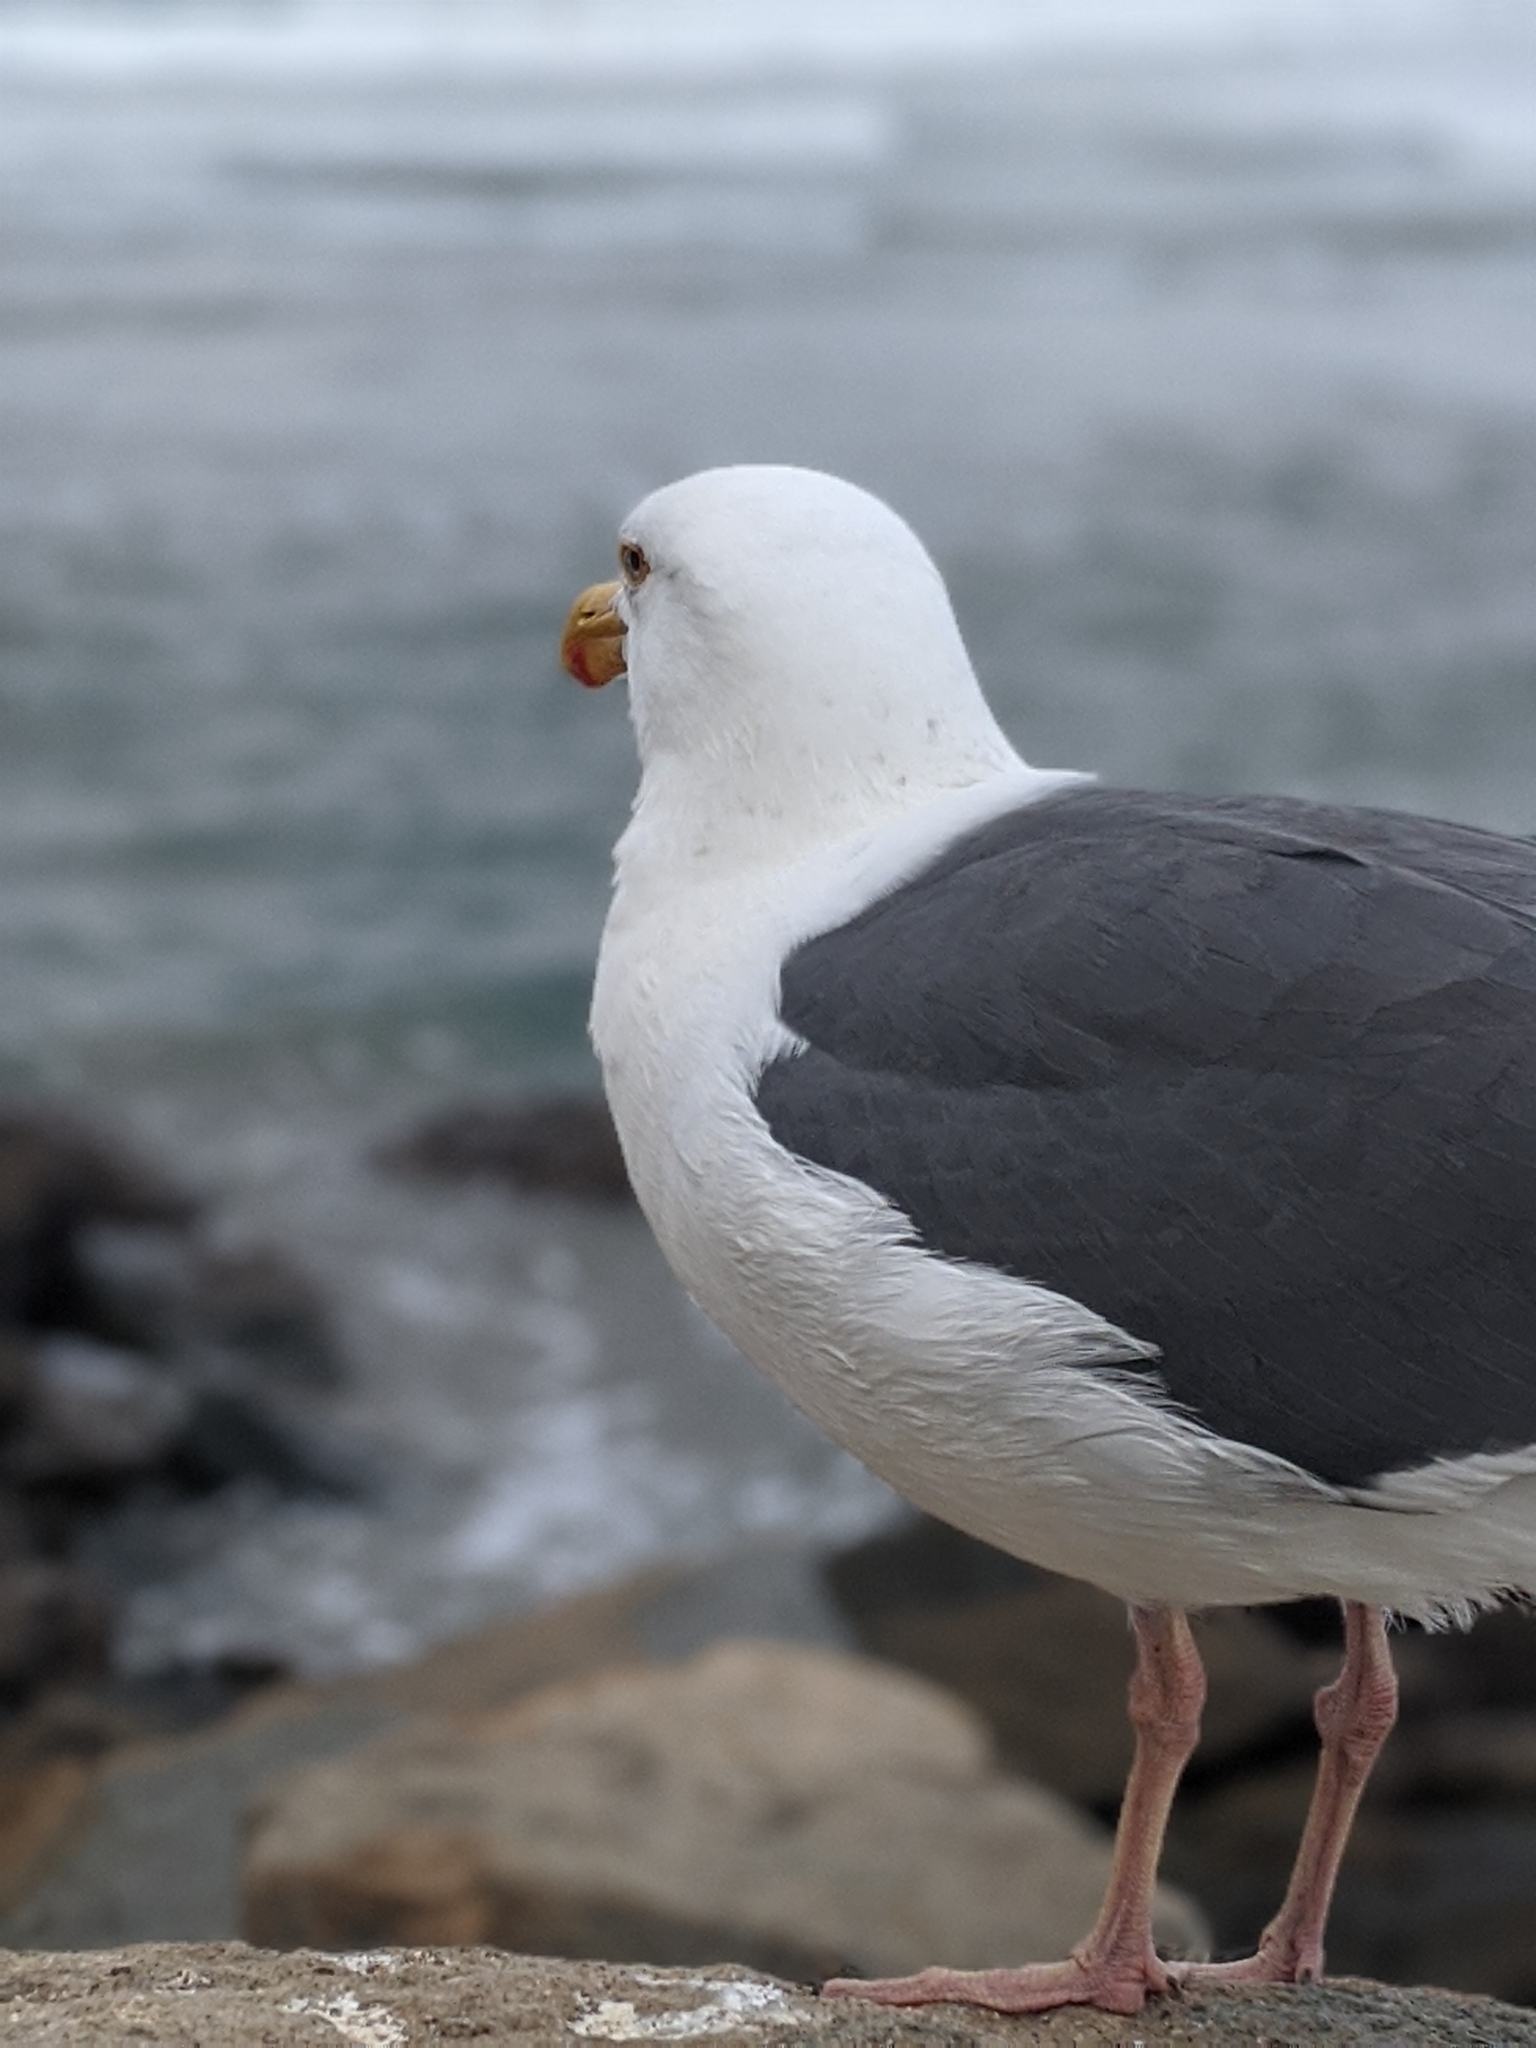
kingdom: Animalia
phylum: Chordata
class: Aves
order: Charadriiformes
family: Laridae
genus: Larus
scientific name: Larus occidentalis
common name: Western gull
